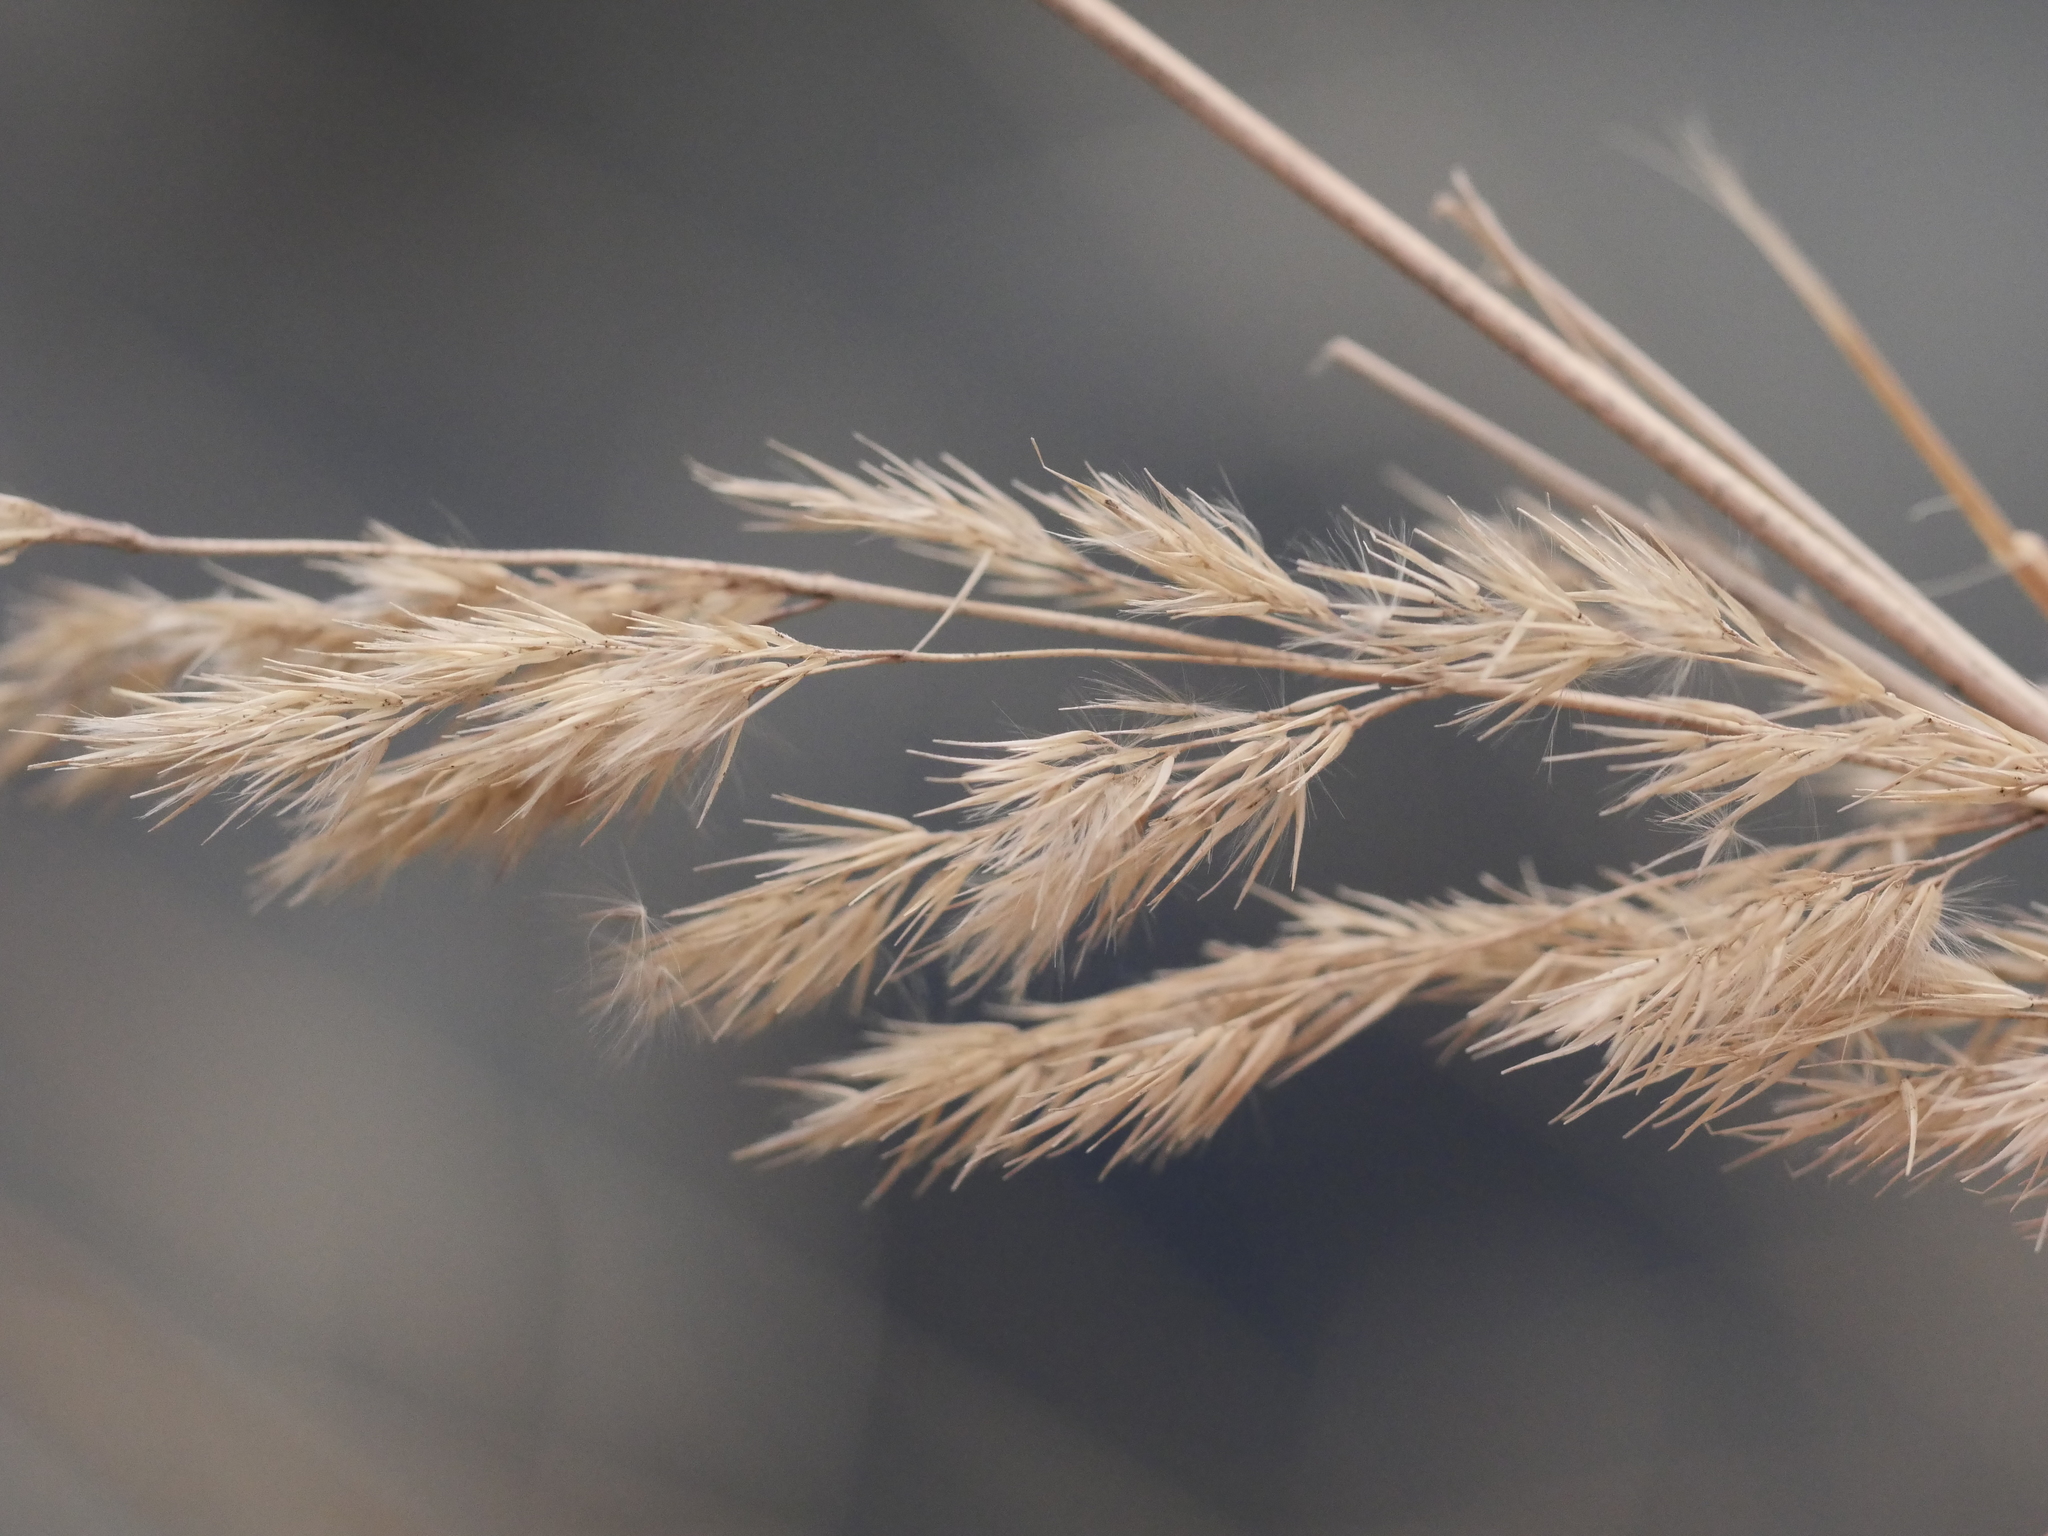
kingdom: Plantae
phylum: Tracheophyta
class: Liliopsida
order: Poales
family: Poaceae
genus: Calamagrostis
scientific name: Calamagrostis epigejos
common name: Wood small-reed
